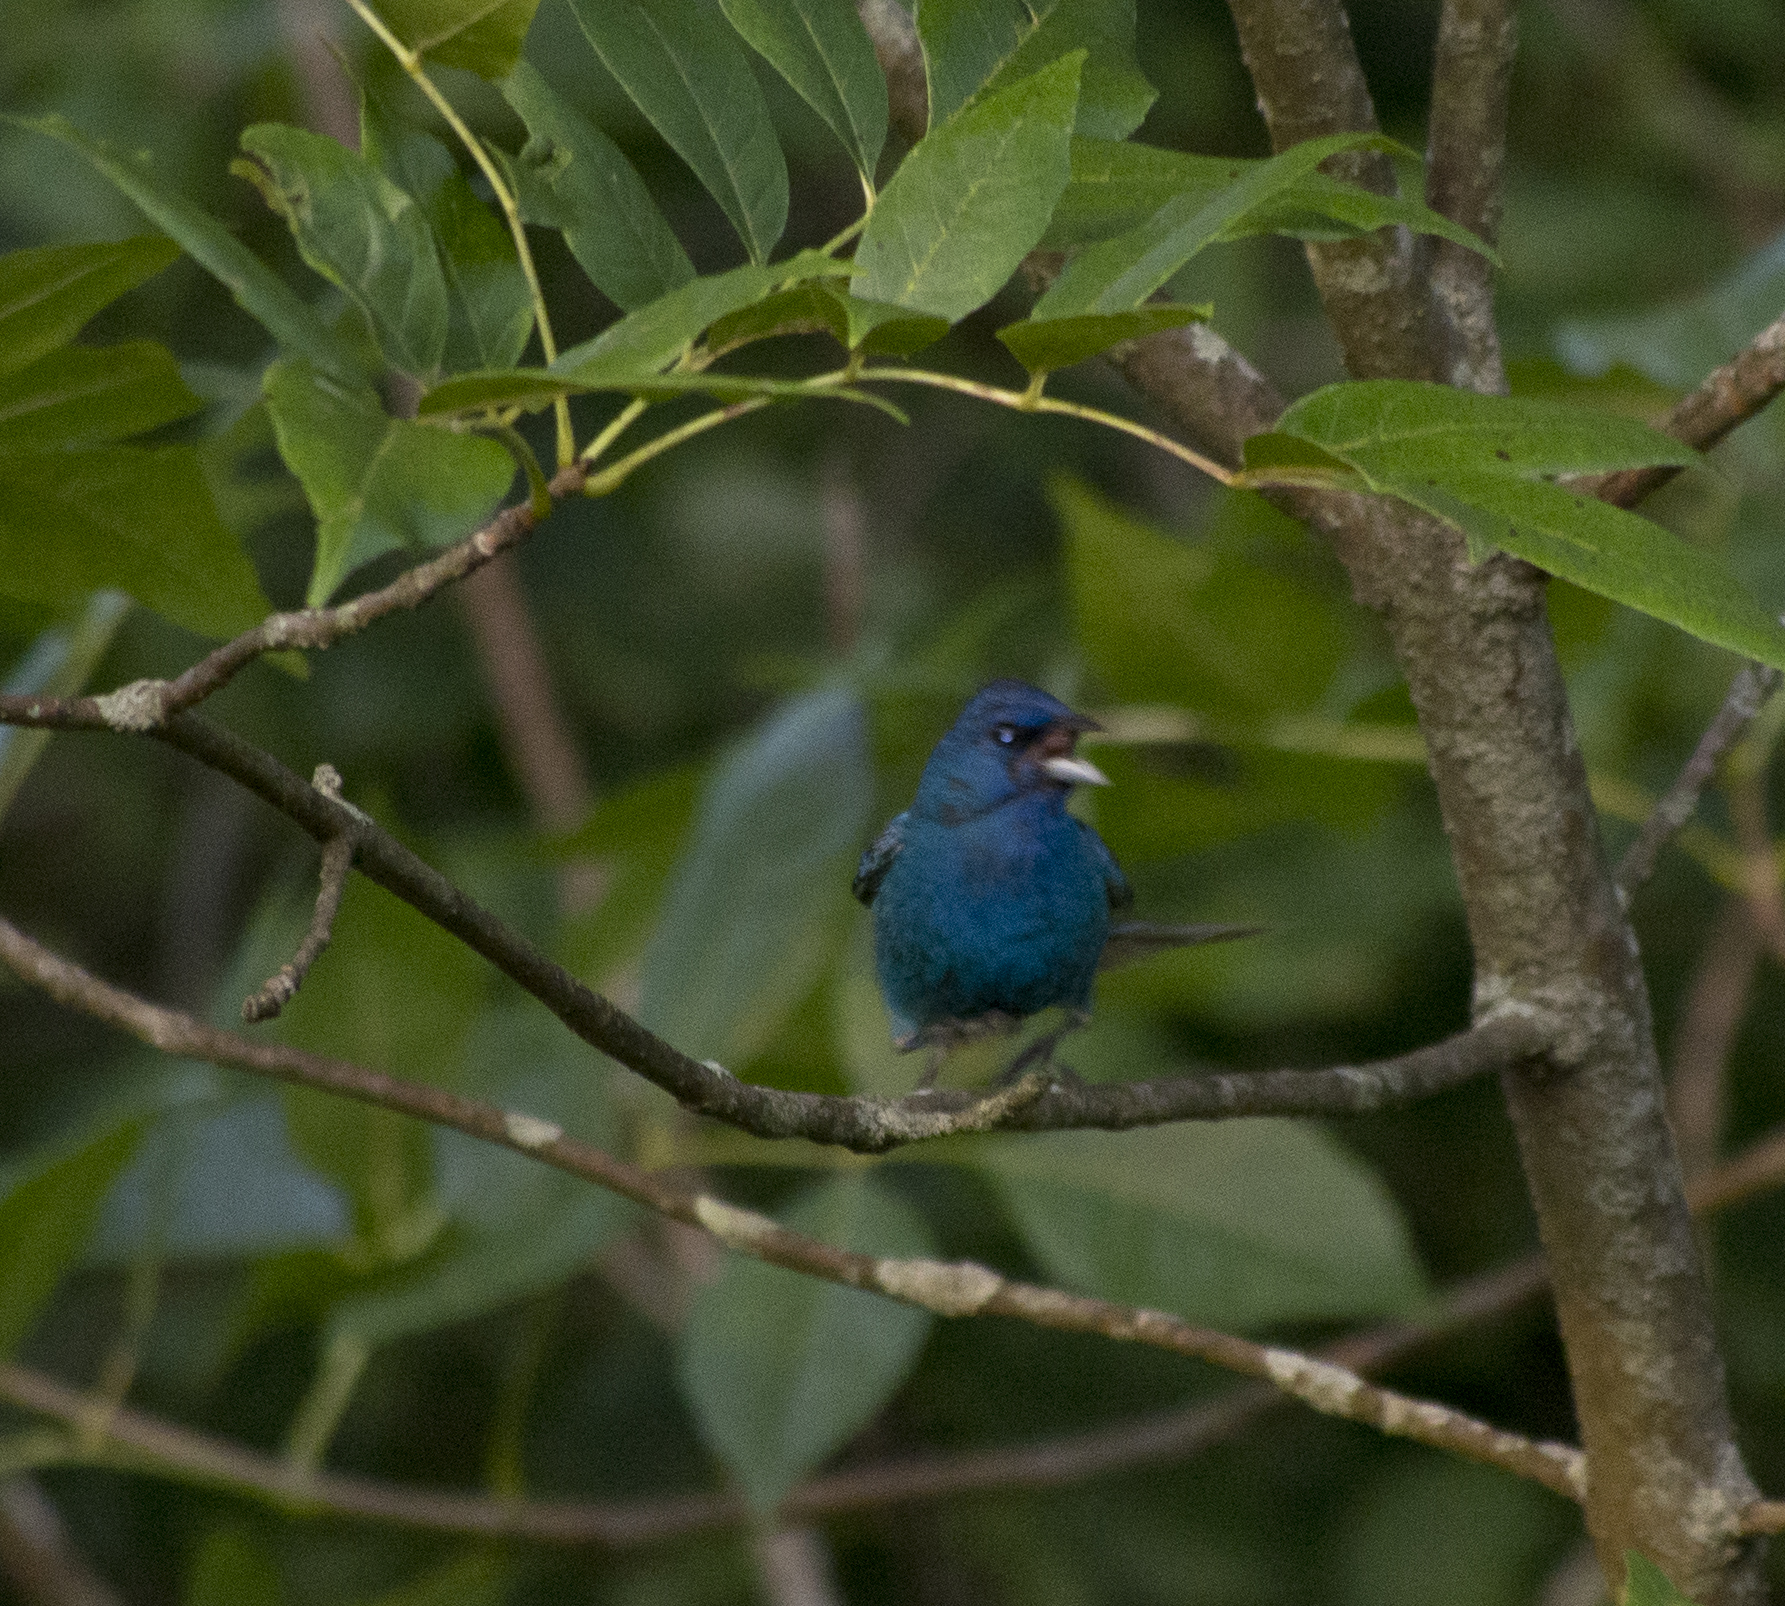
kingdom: Animalia
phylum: Chordata
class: Aves
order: Passeriformes
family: Cardinalidae
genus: Passerina
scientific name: Passerina cyanea
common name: Indigo bunting
